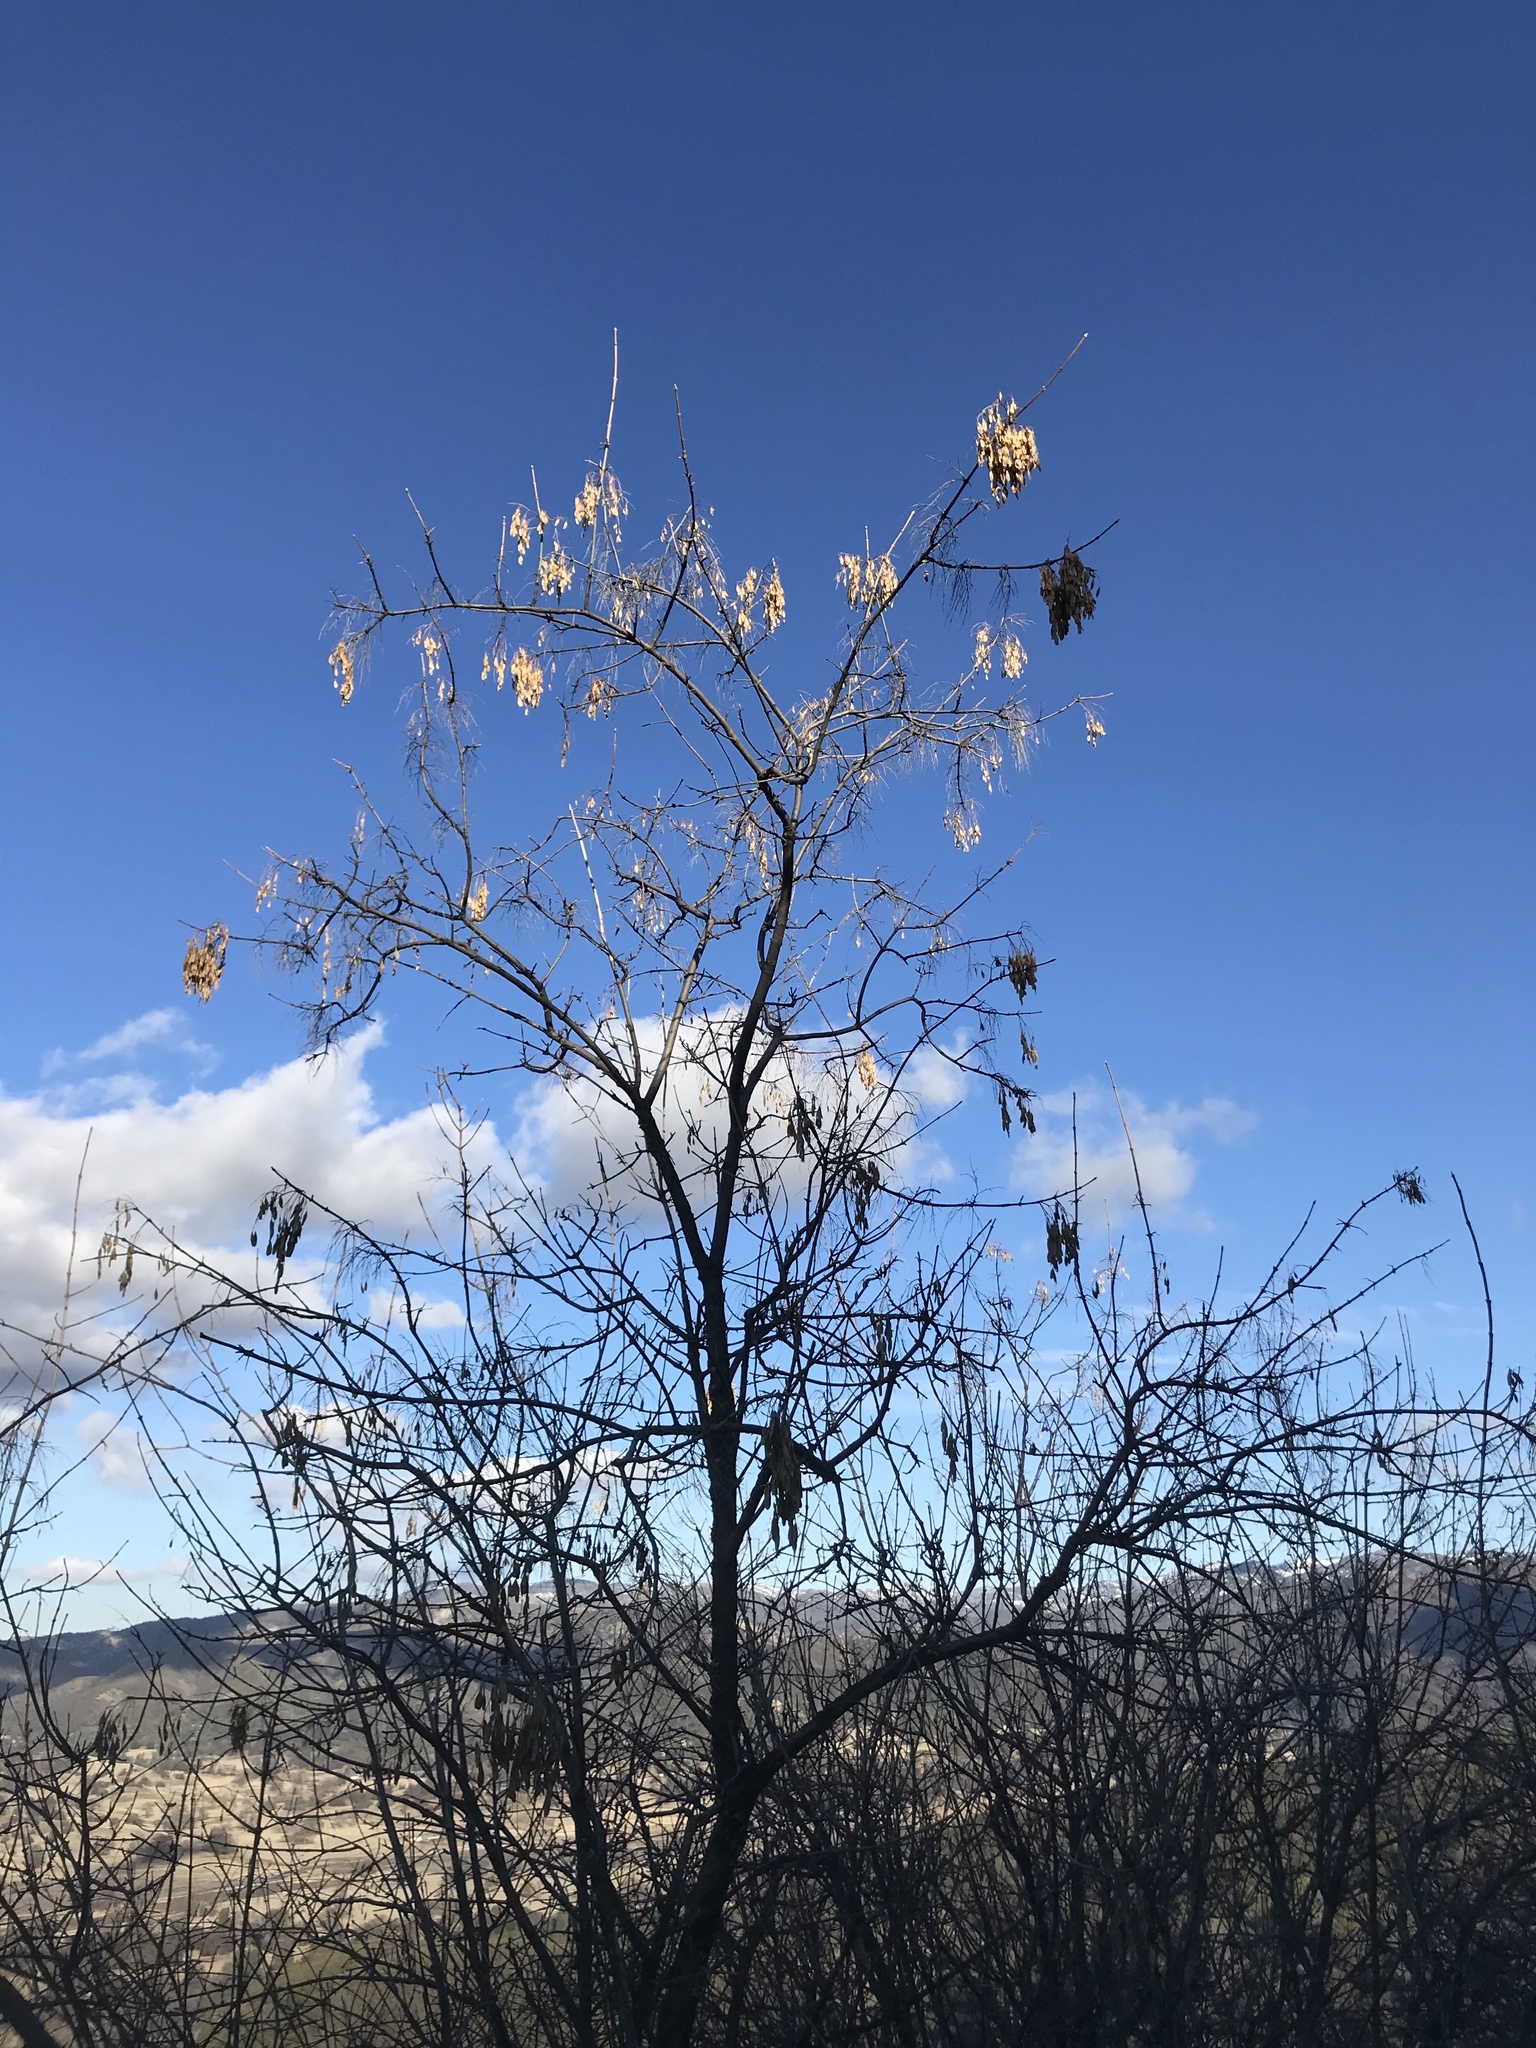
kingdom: Plantae
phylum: Tracheophyta
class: Magnoliopsida
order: Lamiales
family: Oleaceae
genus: Fraxinus
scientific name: Fraxinus dipetala
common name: California ash
